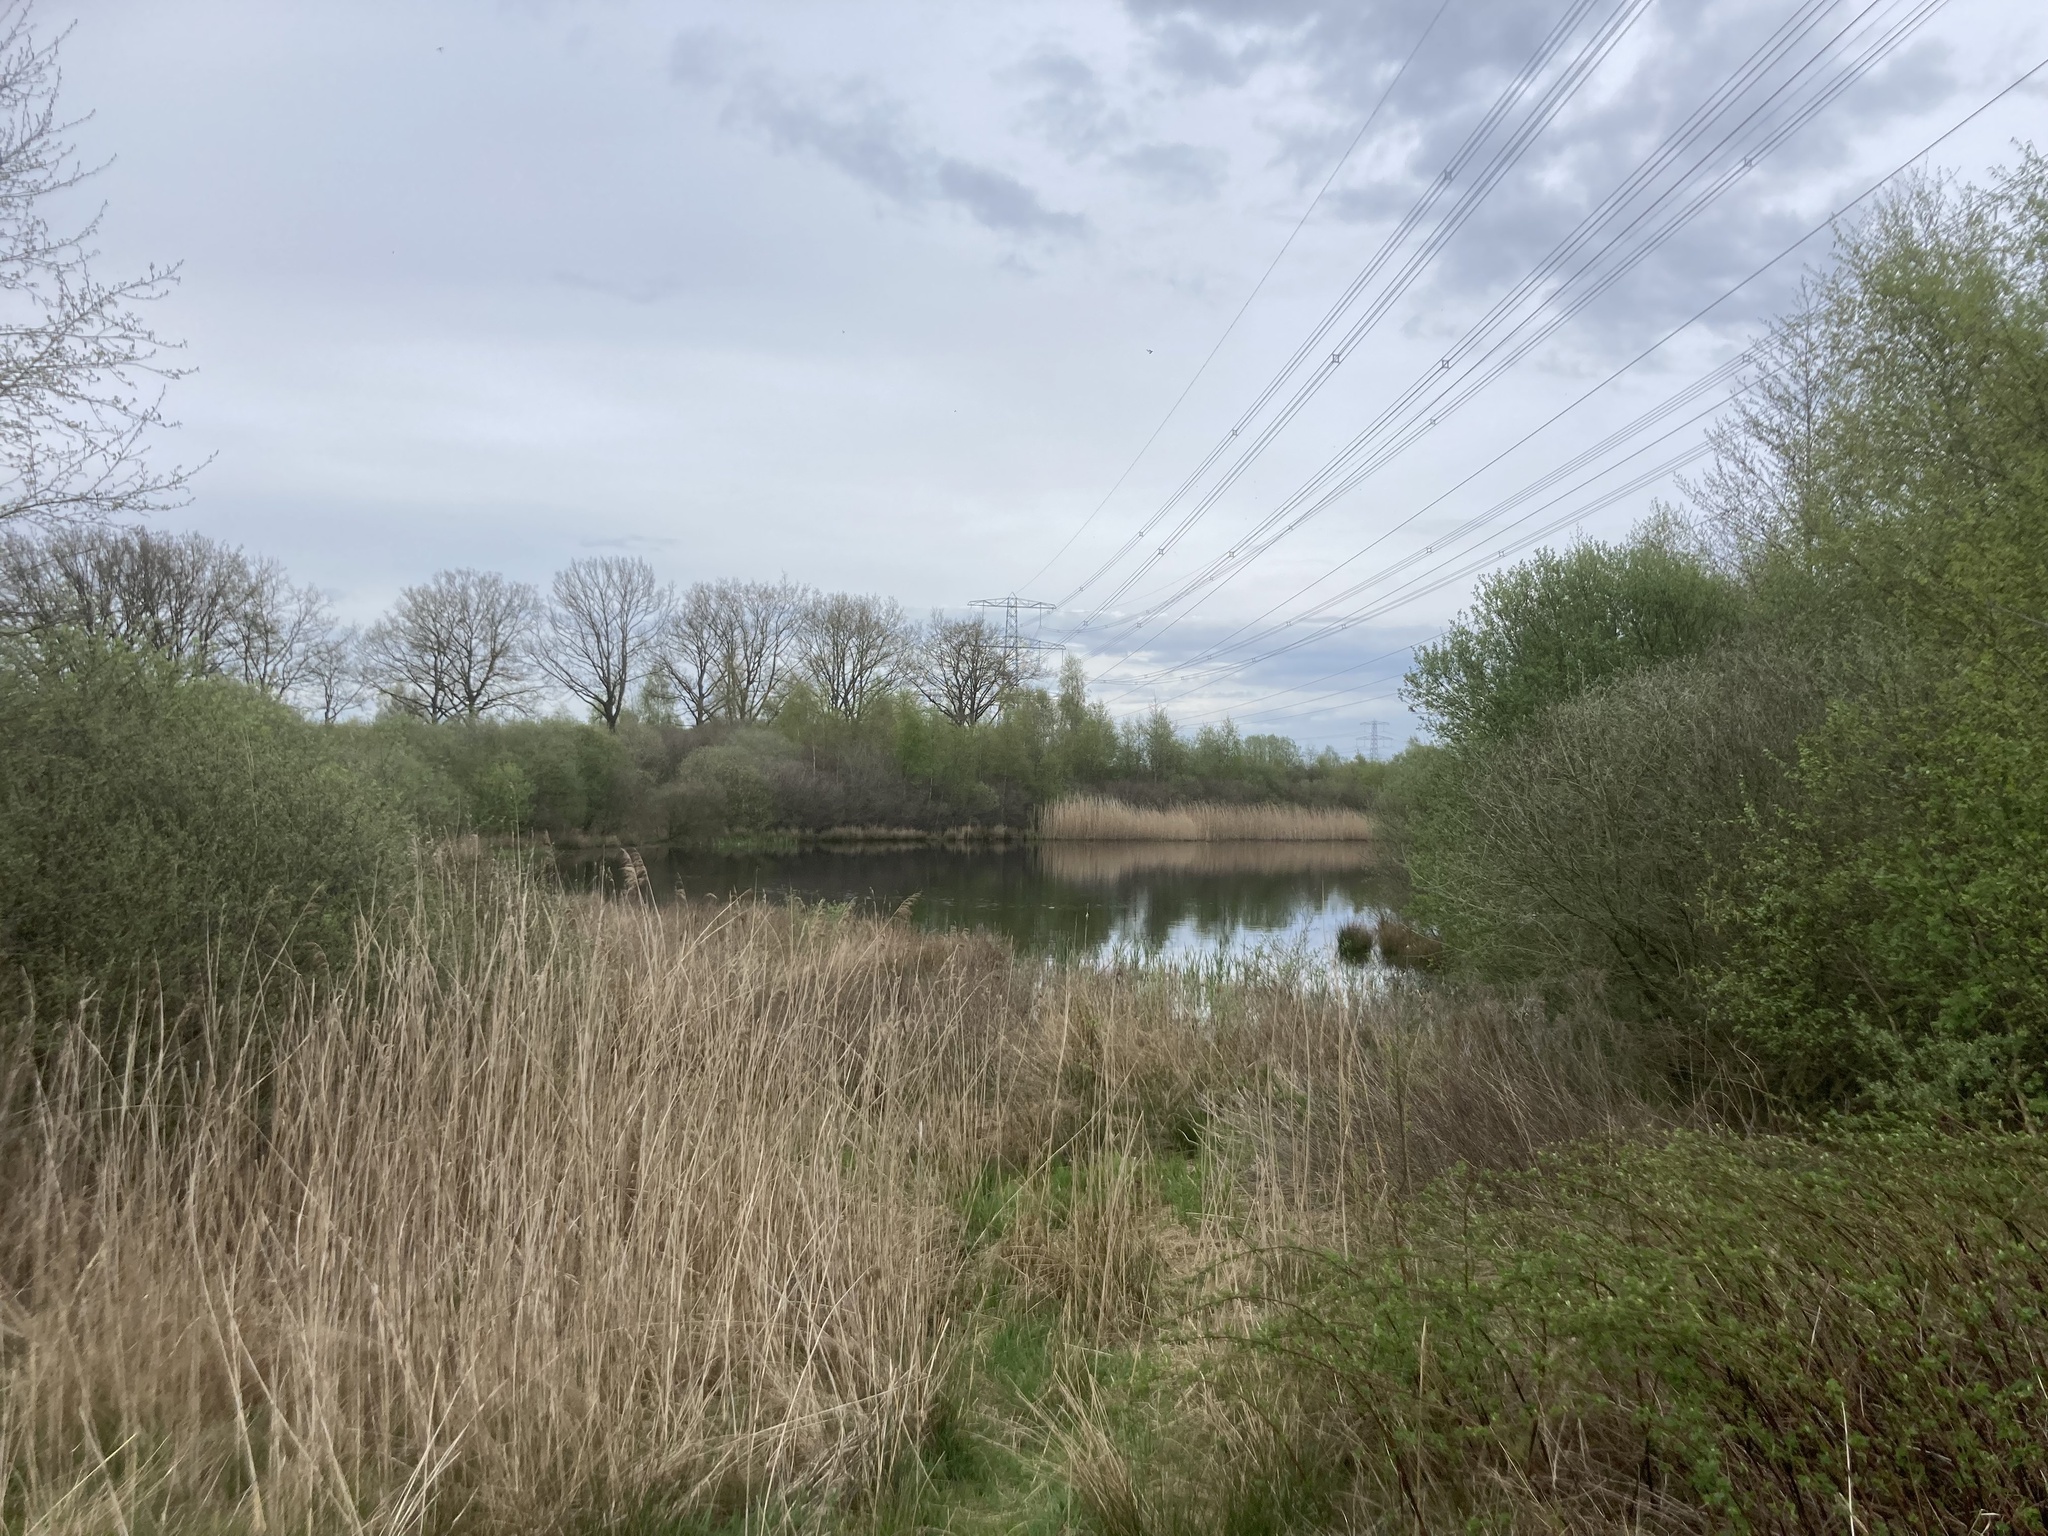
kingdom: Plantae
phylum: Tracheophyta
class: Liliopsida
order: Poales
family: Poaceae
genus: Phragmites
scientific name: Phragmites australis
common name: Common reed
